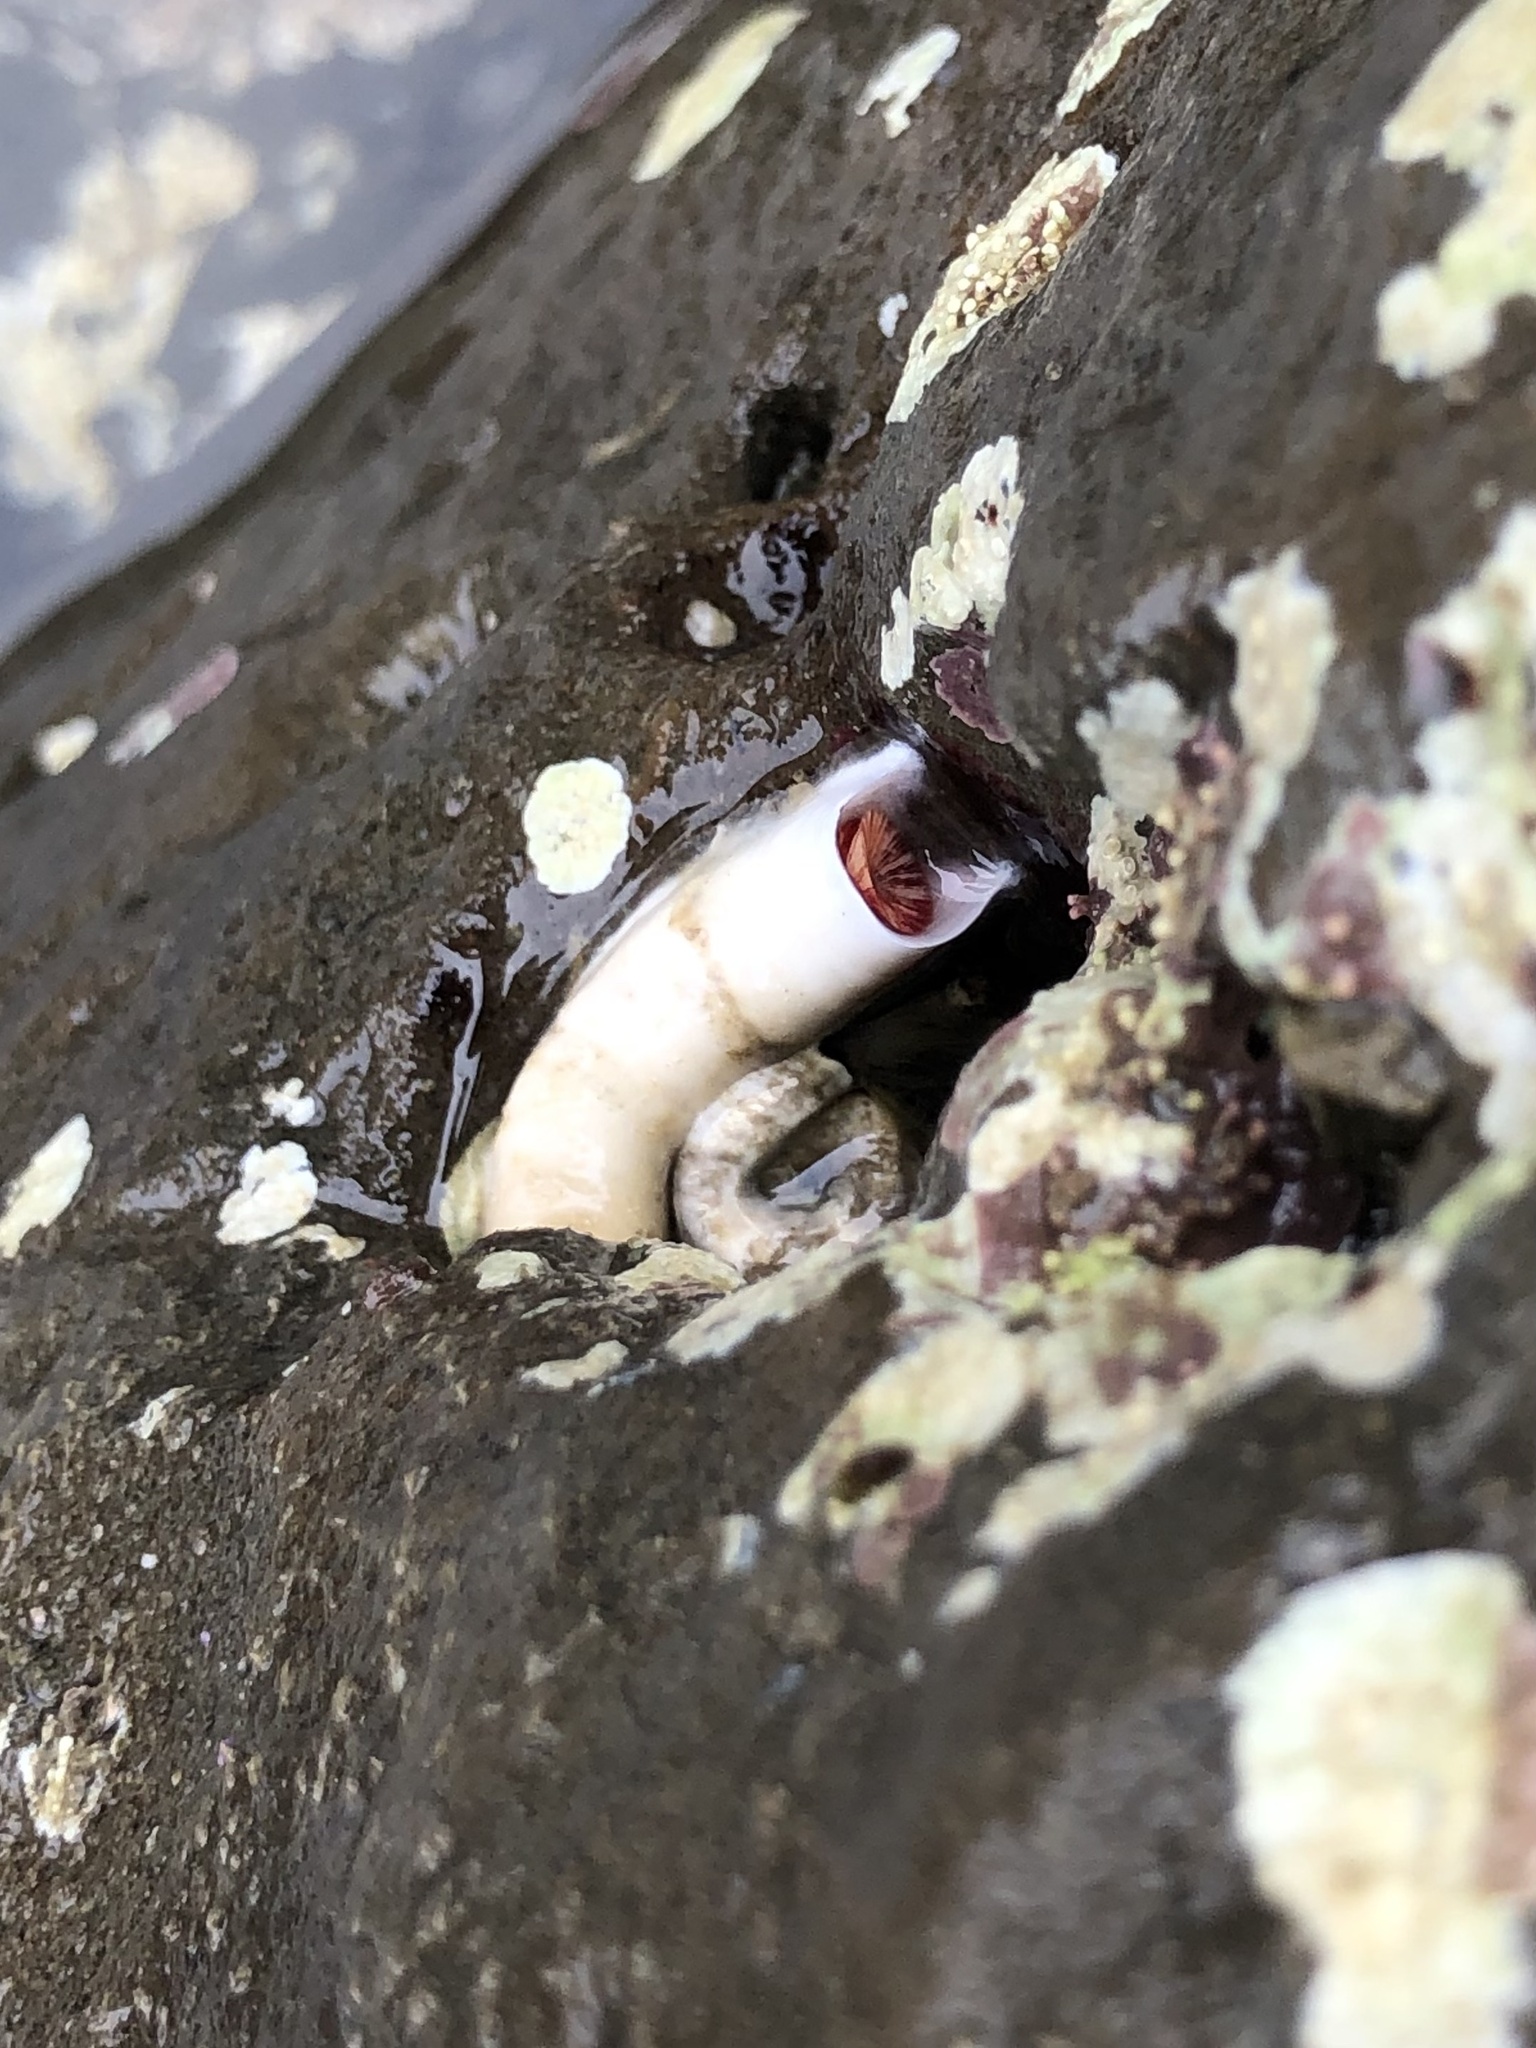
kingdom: Animalia
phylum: Annelida
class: Polychaeta
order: Sabellida
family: Serpulidae
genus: Serpula
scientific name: Serpula columbiana
